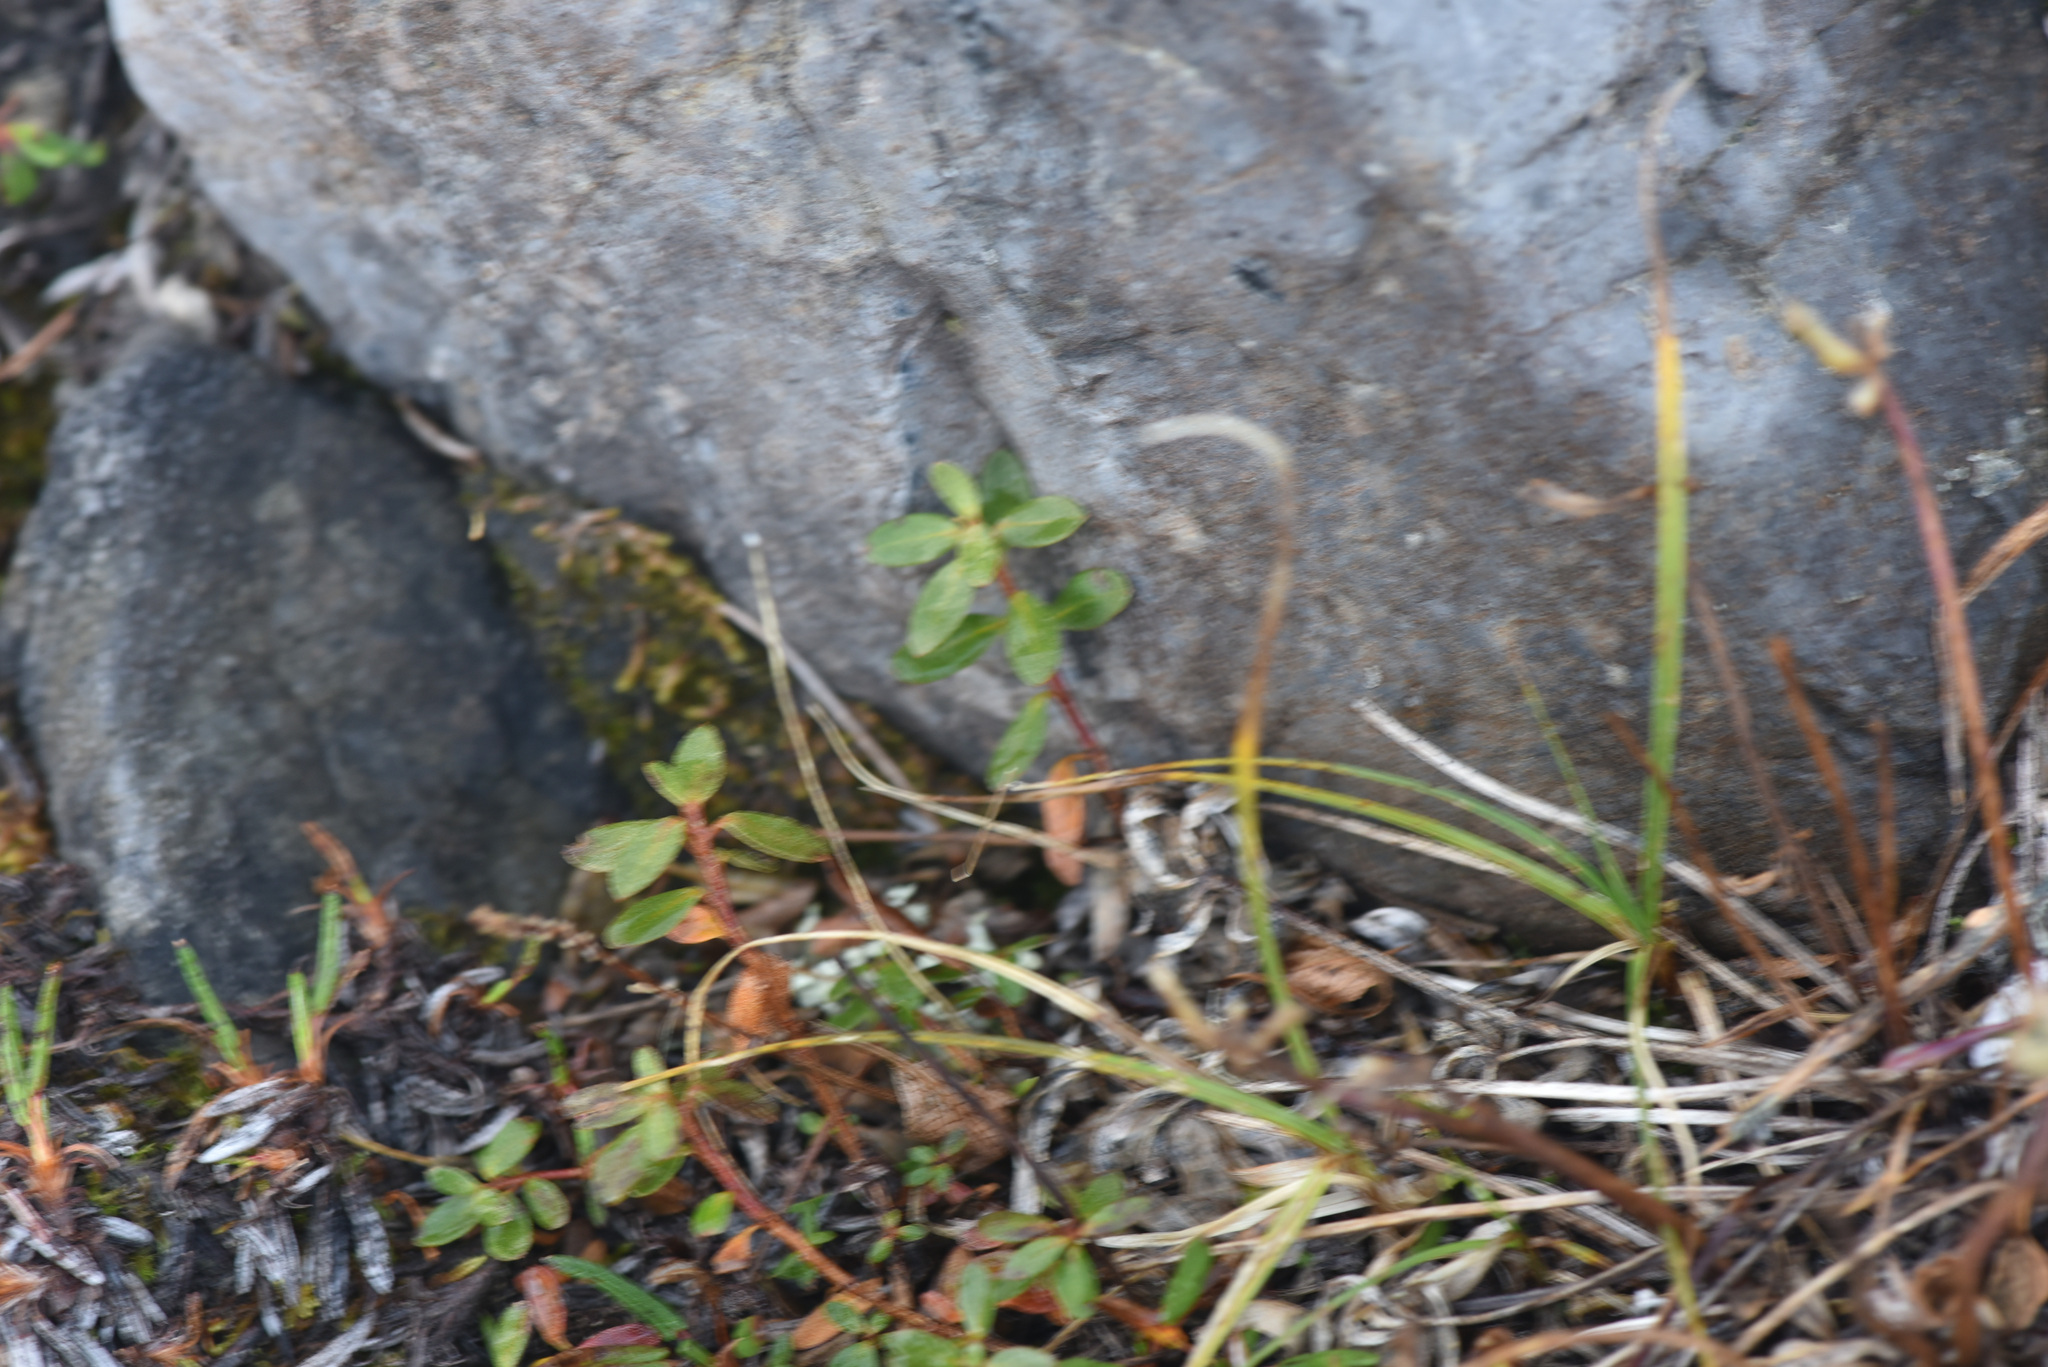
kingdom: Plantae
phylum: Tracheophyta
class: Magnoliopsida
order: Ericales
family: Ericaceae
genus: Rhododendron
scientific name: Rhododendron lapponicum
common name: Lapland rhododendron
